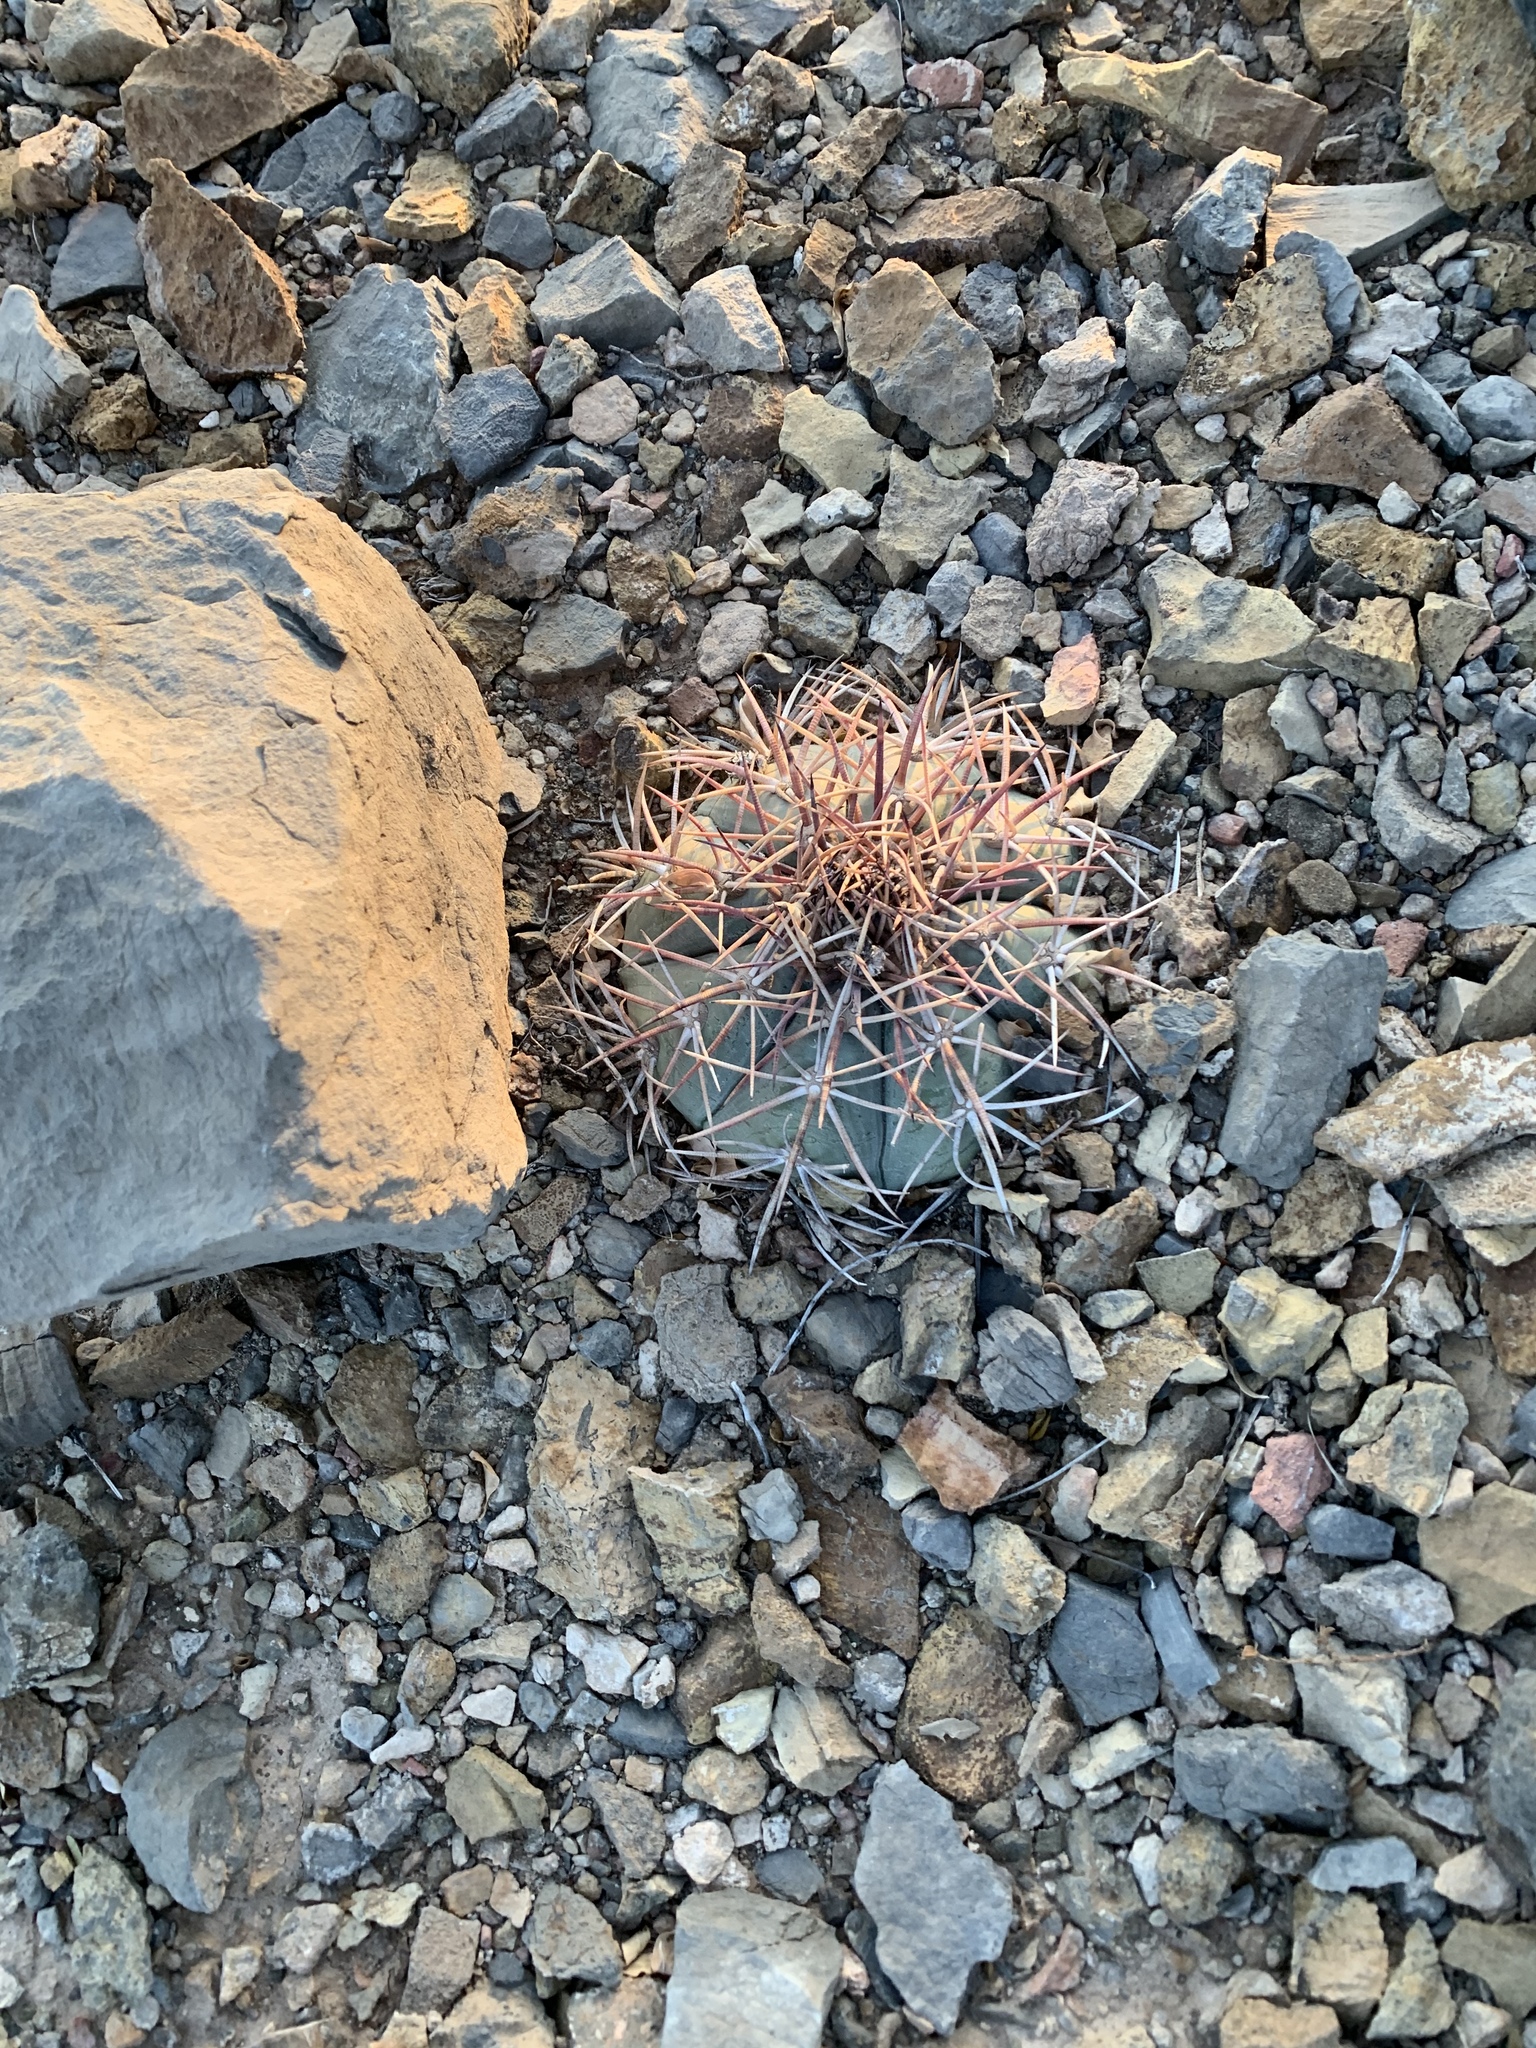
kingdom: Plantae
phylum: Tracheophyta
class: Magnoliopsida
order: Caryophyllales
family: Cactaceae
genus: Echinocactus
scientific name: Echinocactus horizonthalonius
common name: Devilshead
